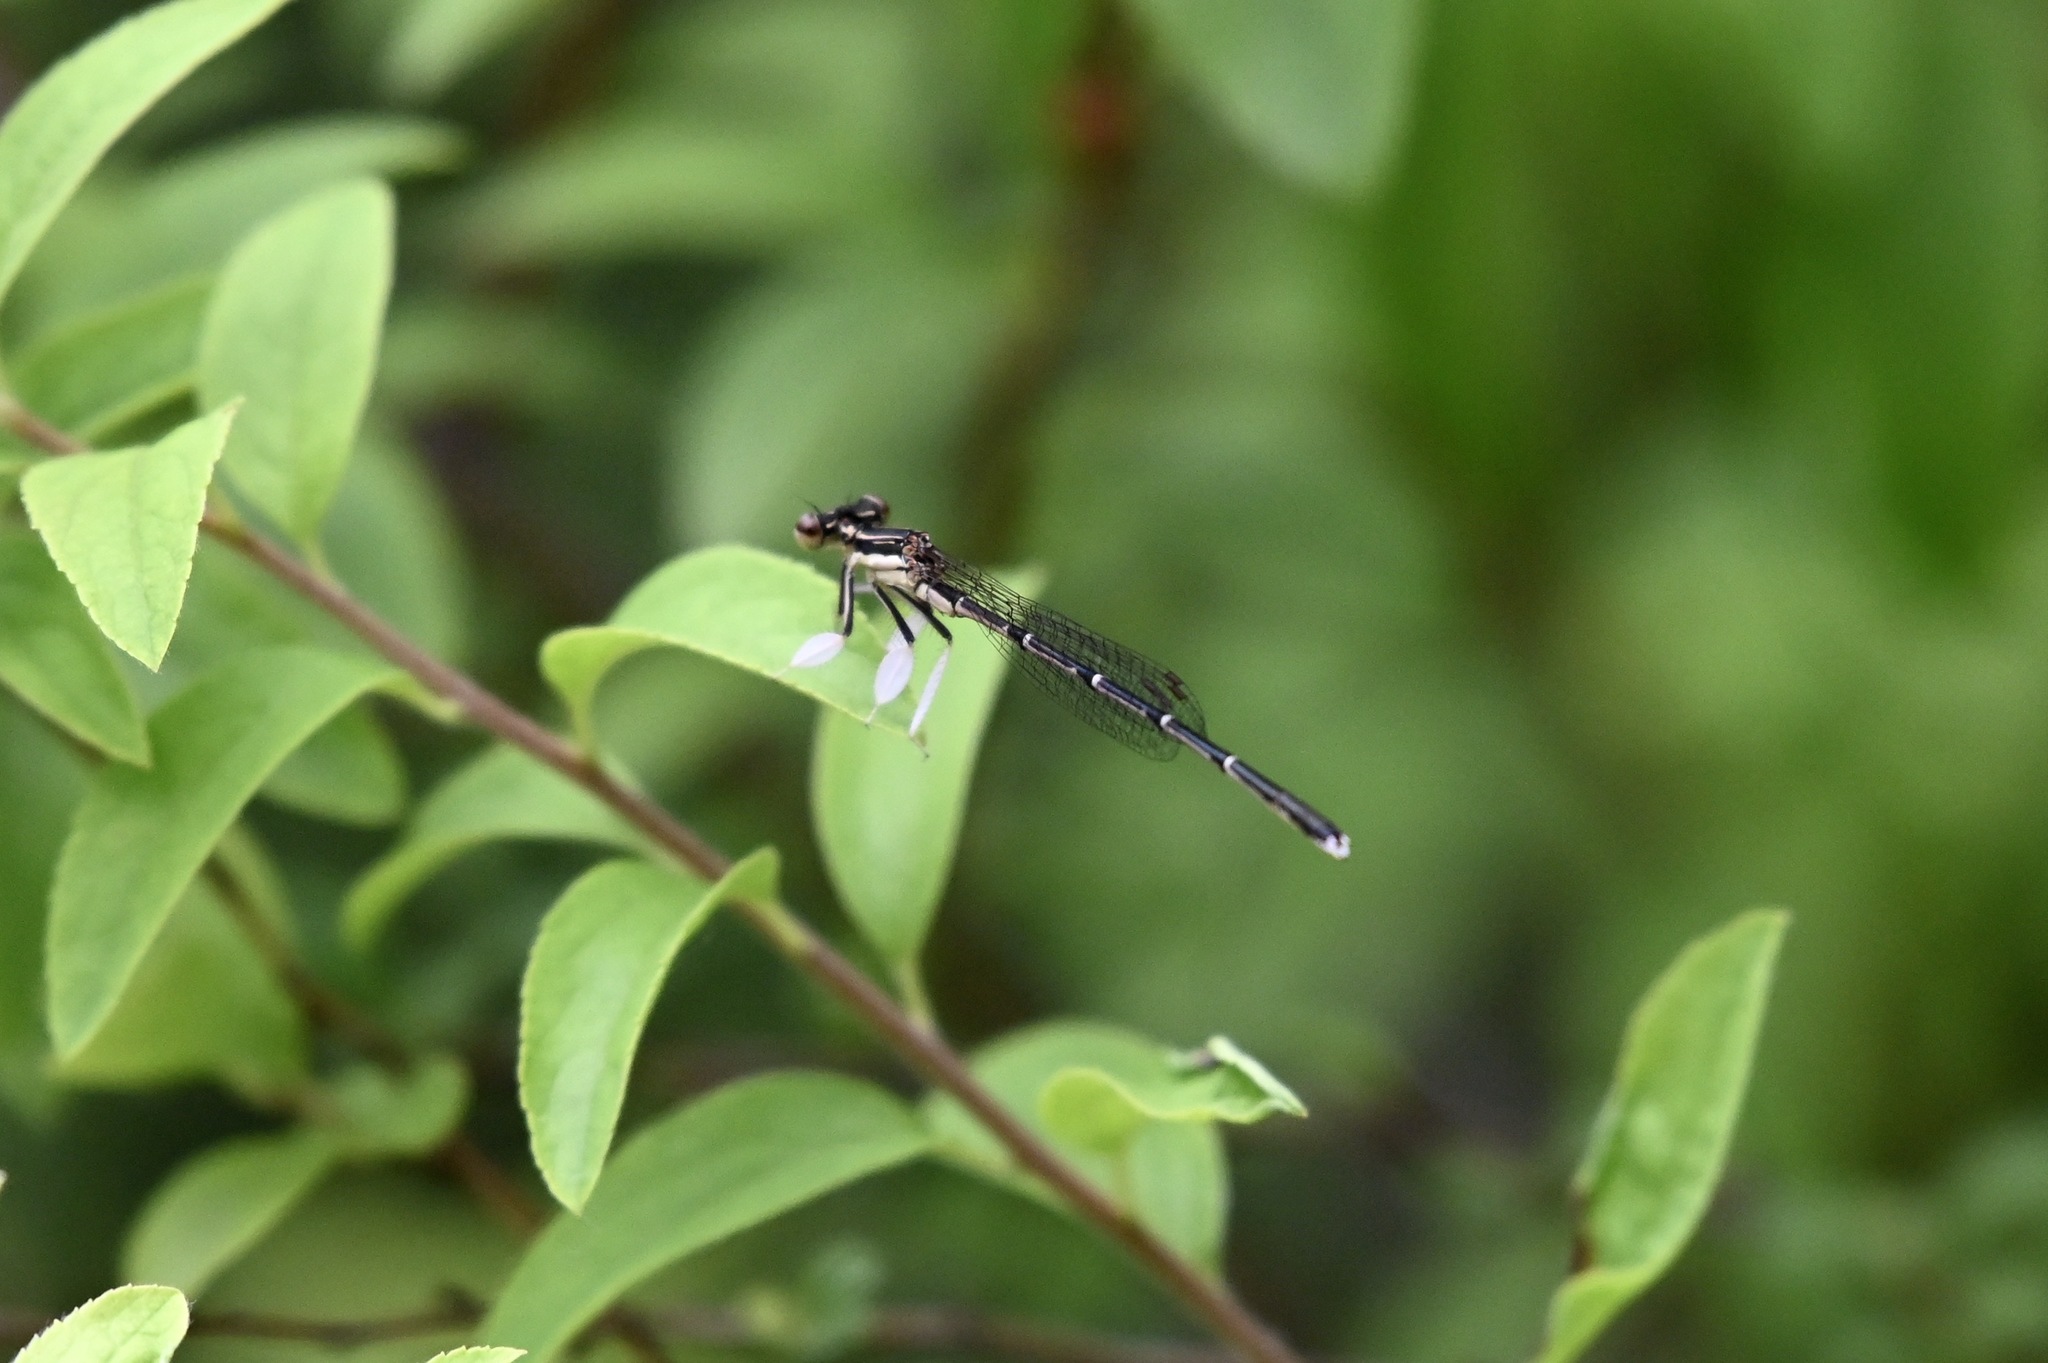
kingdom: Animalia
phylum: Arthropoda
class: Insecta
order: Odonata
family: Platycnemididae
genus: Platycnemis
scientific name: Platycnemis phyllopoda
